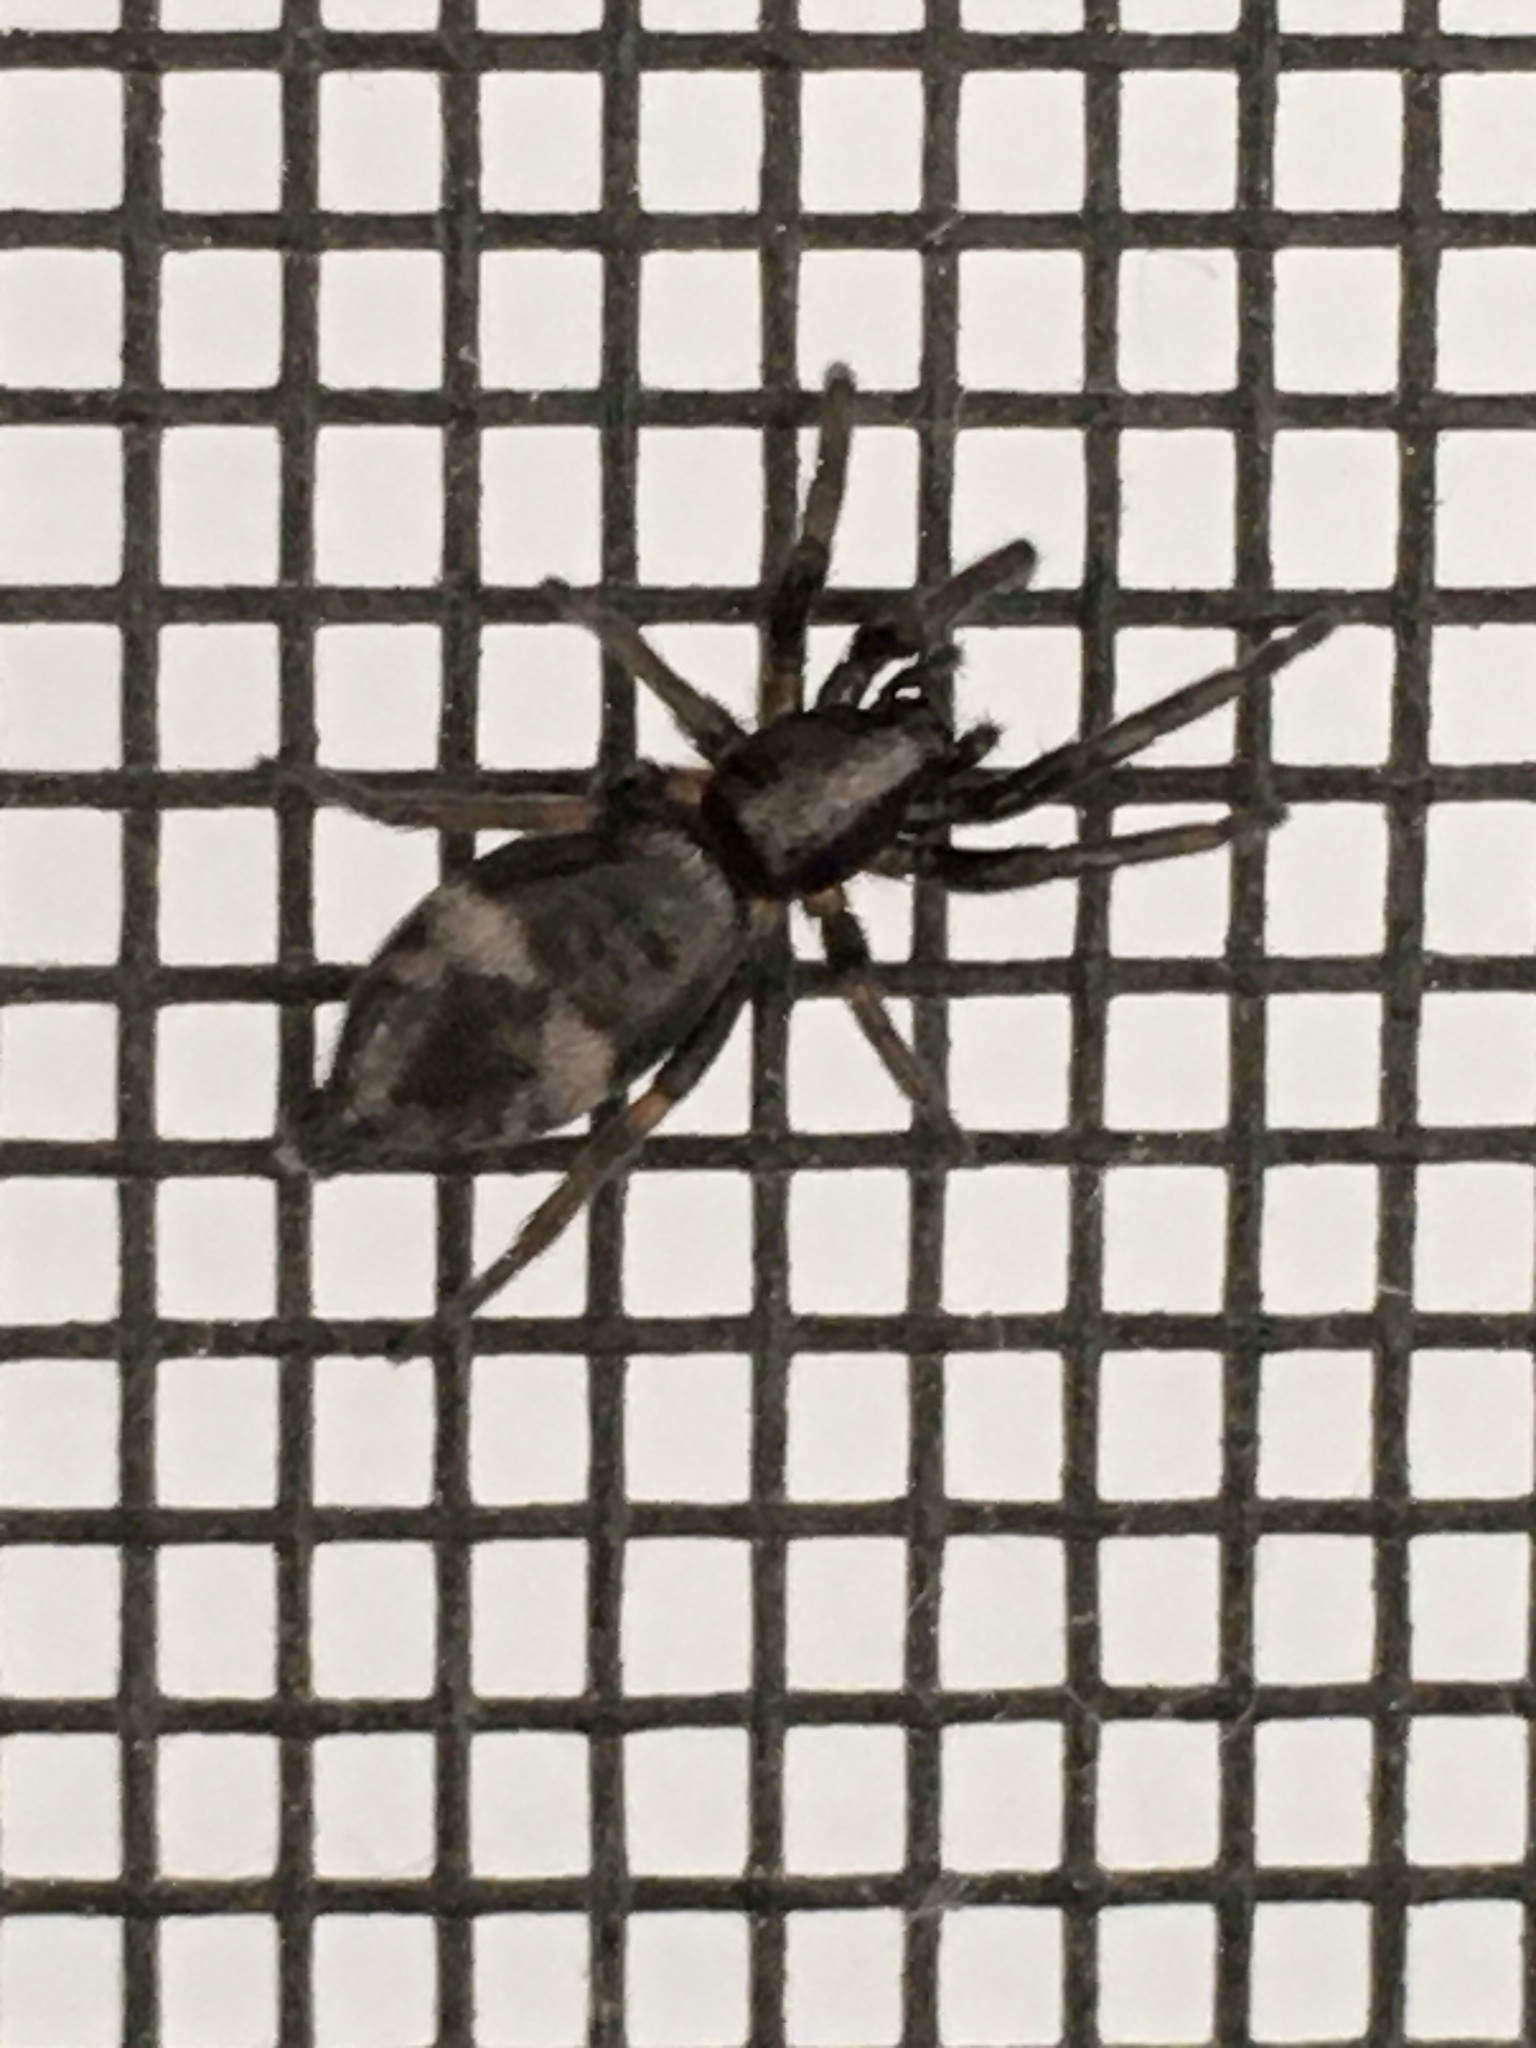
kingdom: Animalia
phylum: Arthropoda
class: Arachnida
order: Araneae
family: Gnaphosidae
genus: Sergiolus
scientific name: Sergiolus montanus
